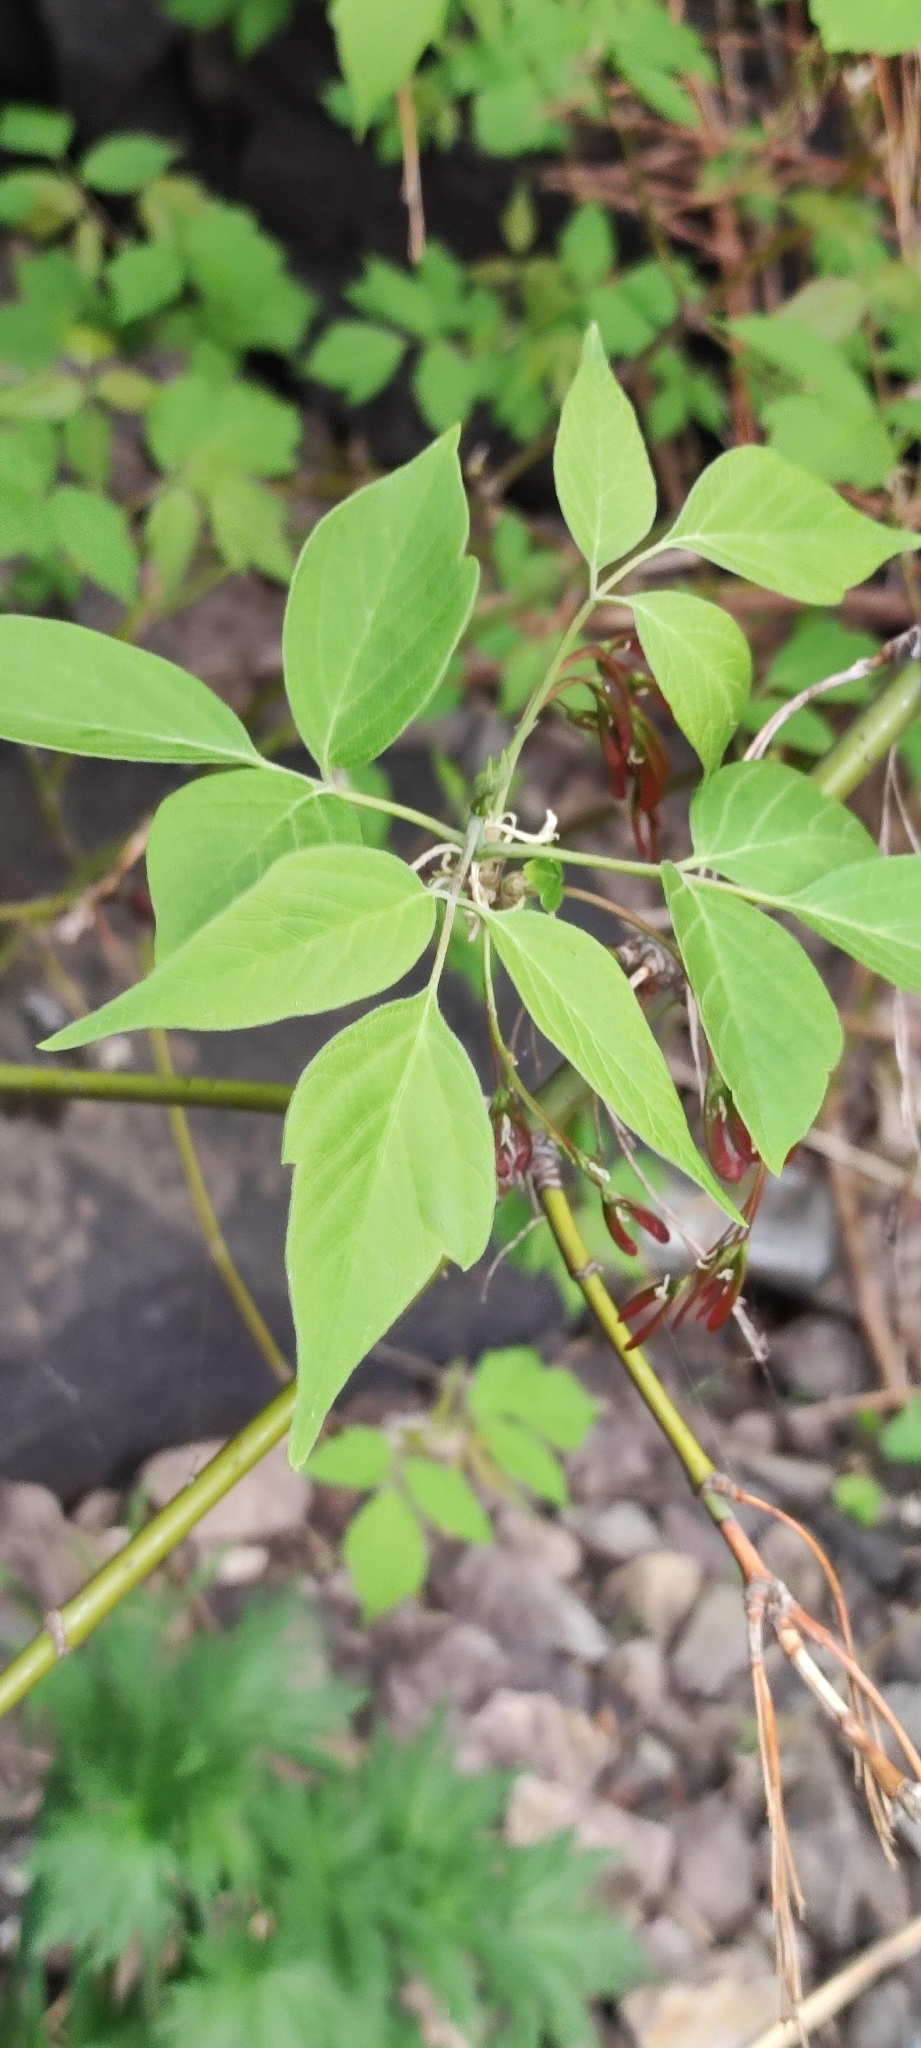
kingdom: Plantae
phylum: Tracheophyta
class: Magnoliopsida
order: Sapindales
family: Sapindaceae
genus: Acer
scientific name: Acer negundo
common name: Ashleaf maple
